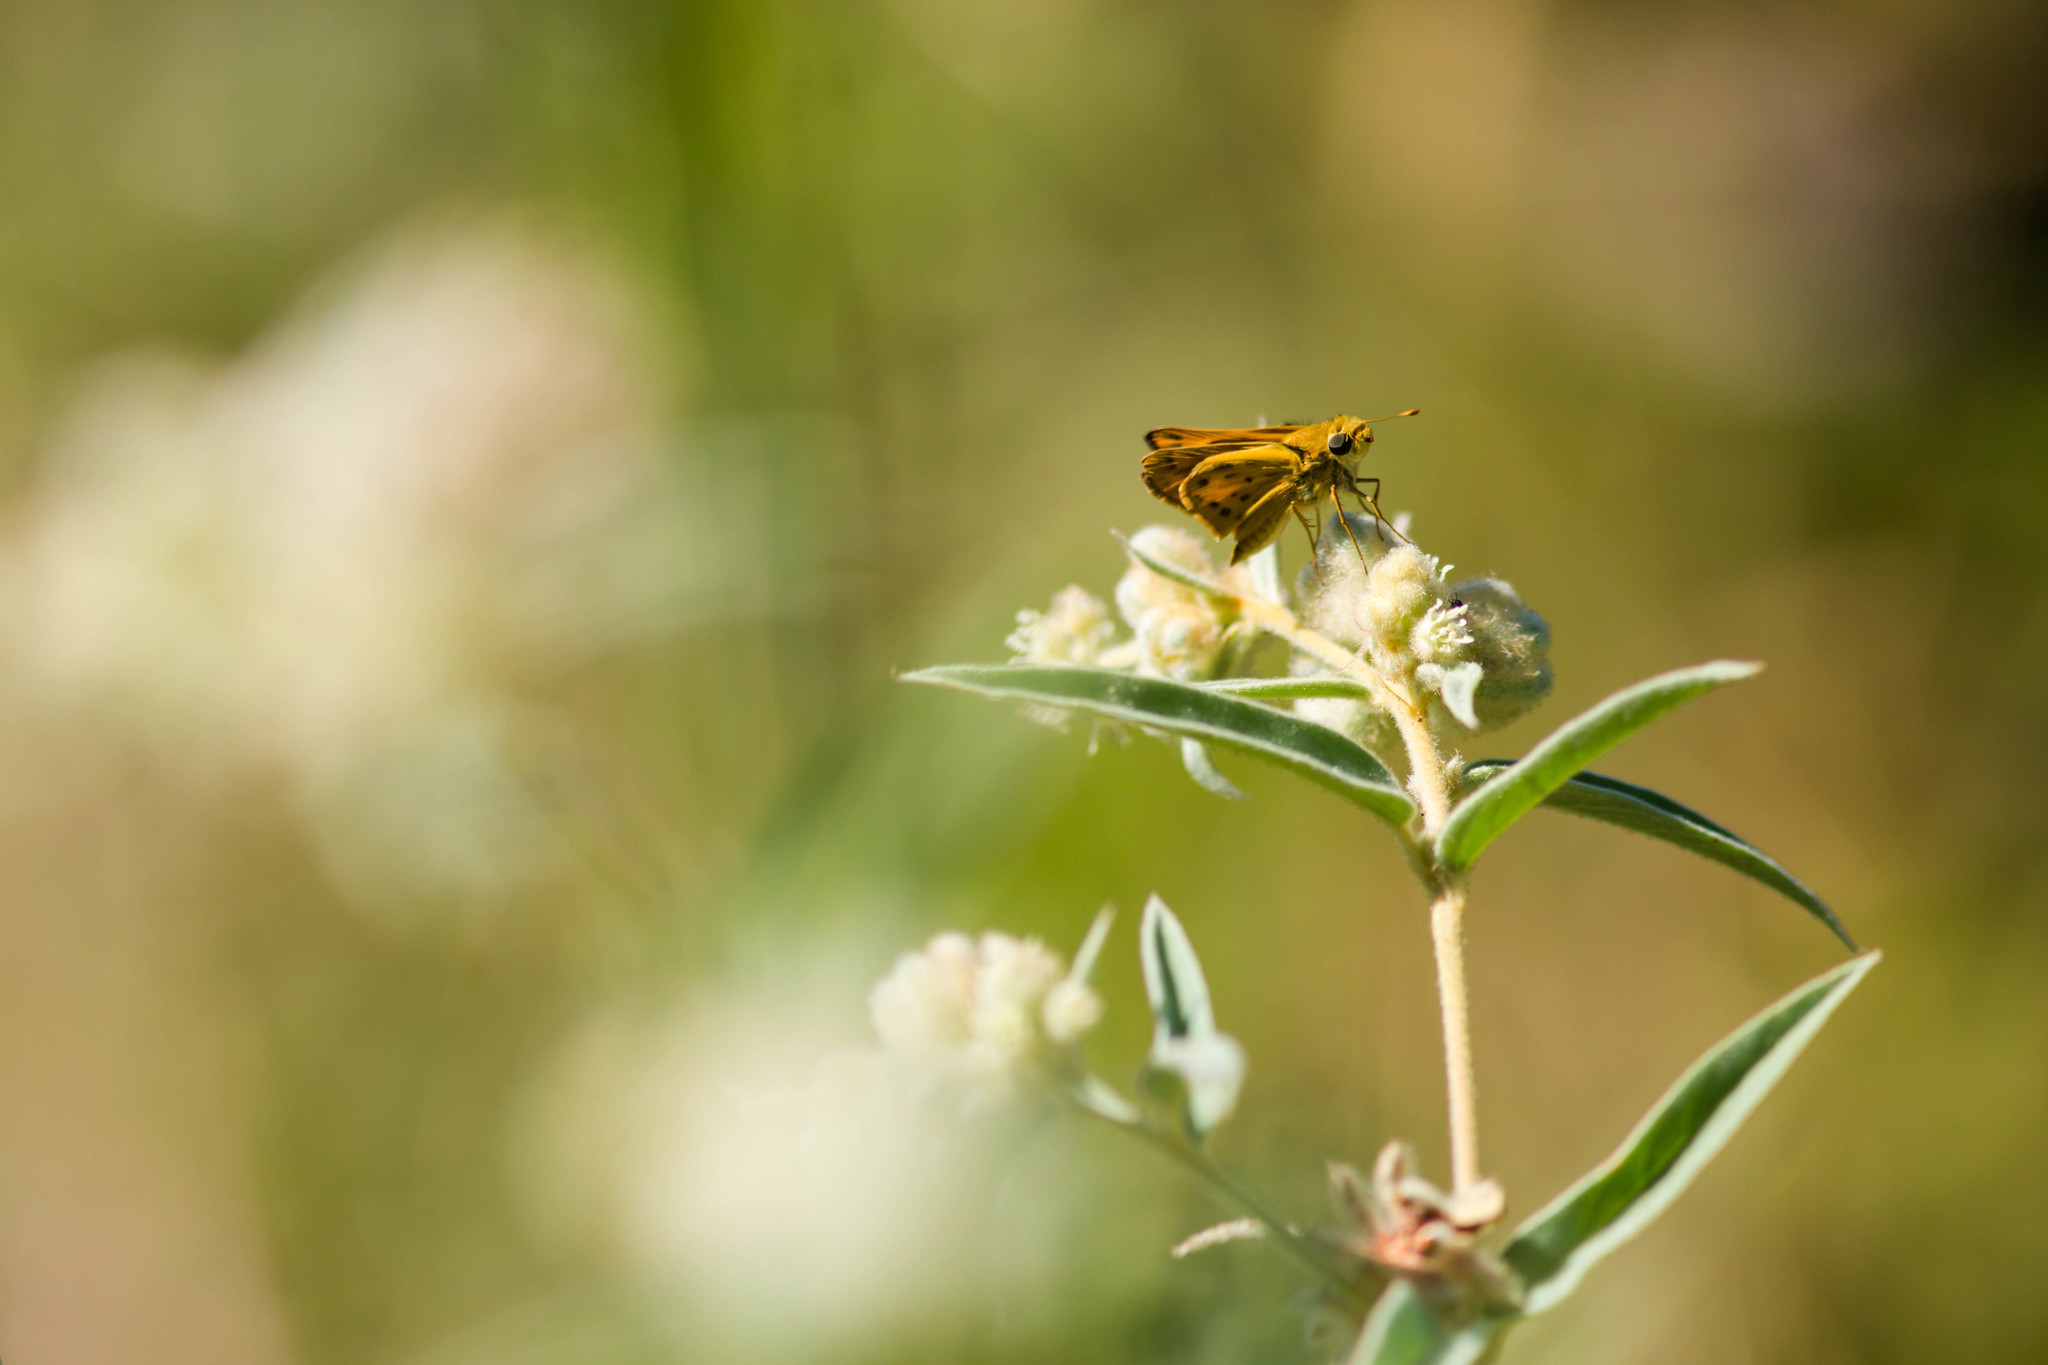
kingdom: Animalia
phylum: Arthropoda
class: Insecta
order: Lepidoptera
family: Hesperiidae
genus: Hylephila
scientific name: Hylephila phyleus
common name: Fiery skipper
